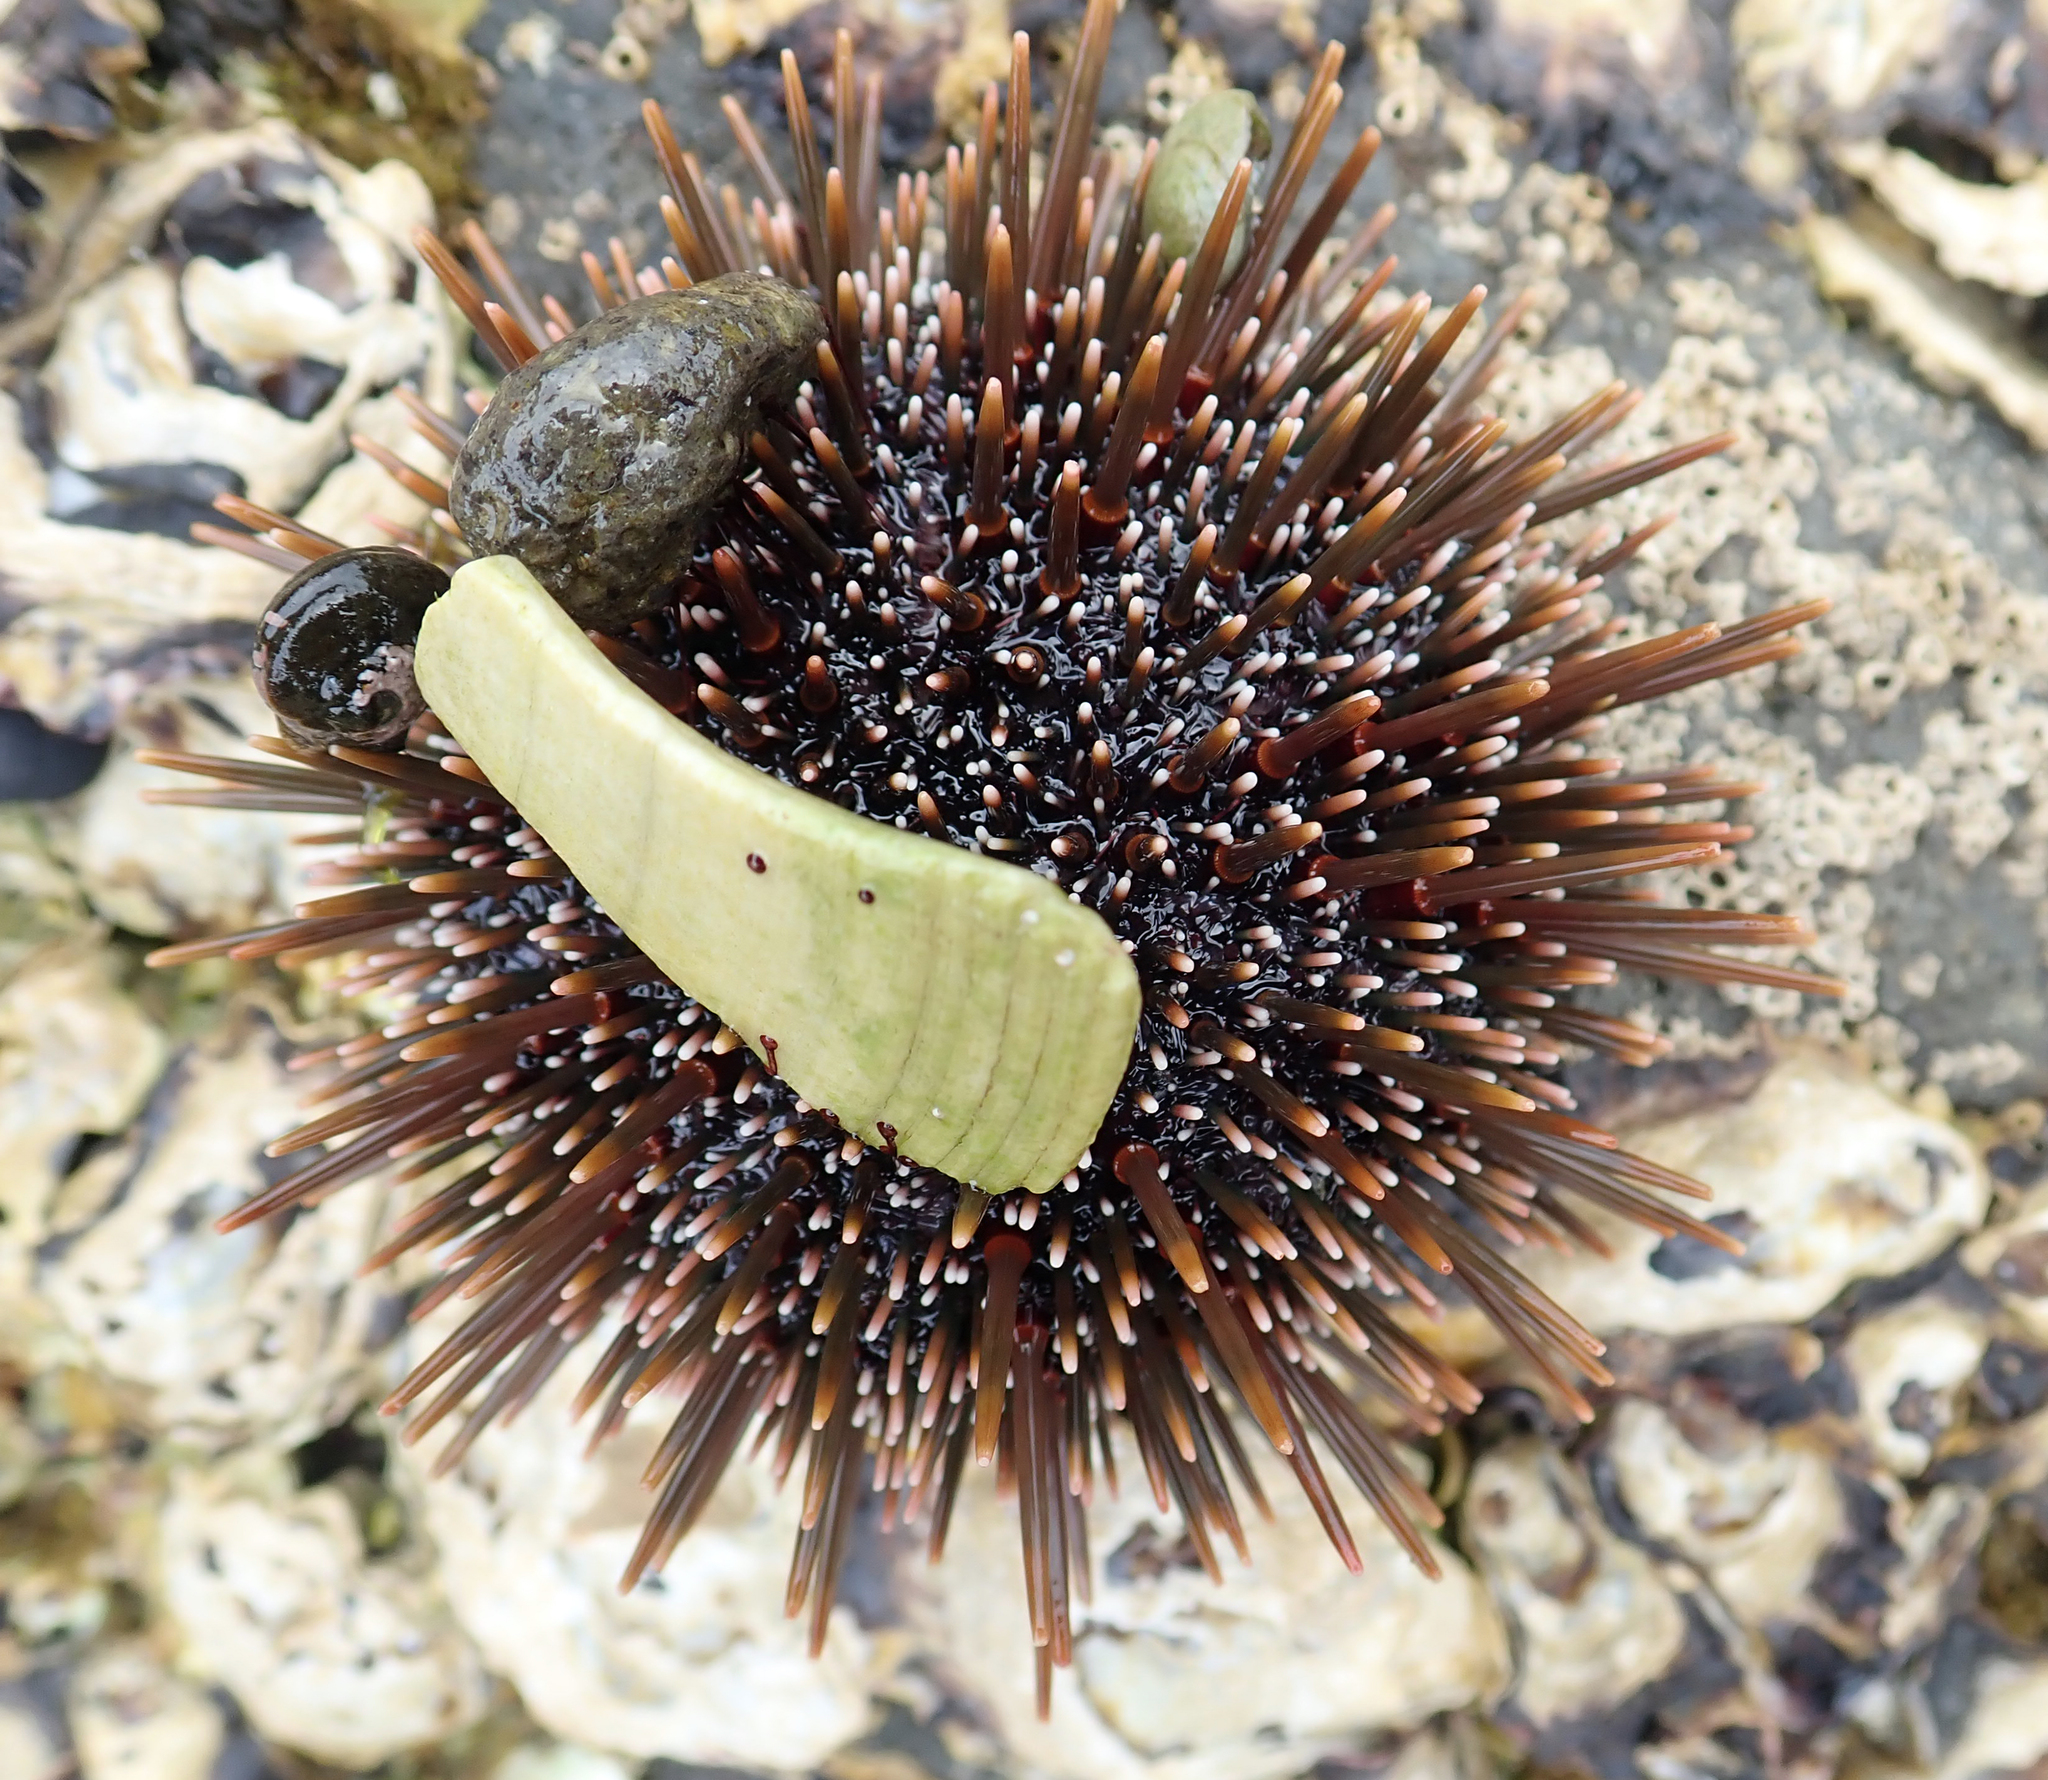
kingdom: Animalia
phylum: Echinodermata
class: Echinoidea
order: Camarodonta
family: Echinometridae
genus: Evechinus
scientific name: Evechinus chloroticus
